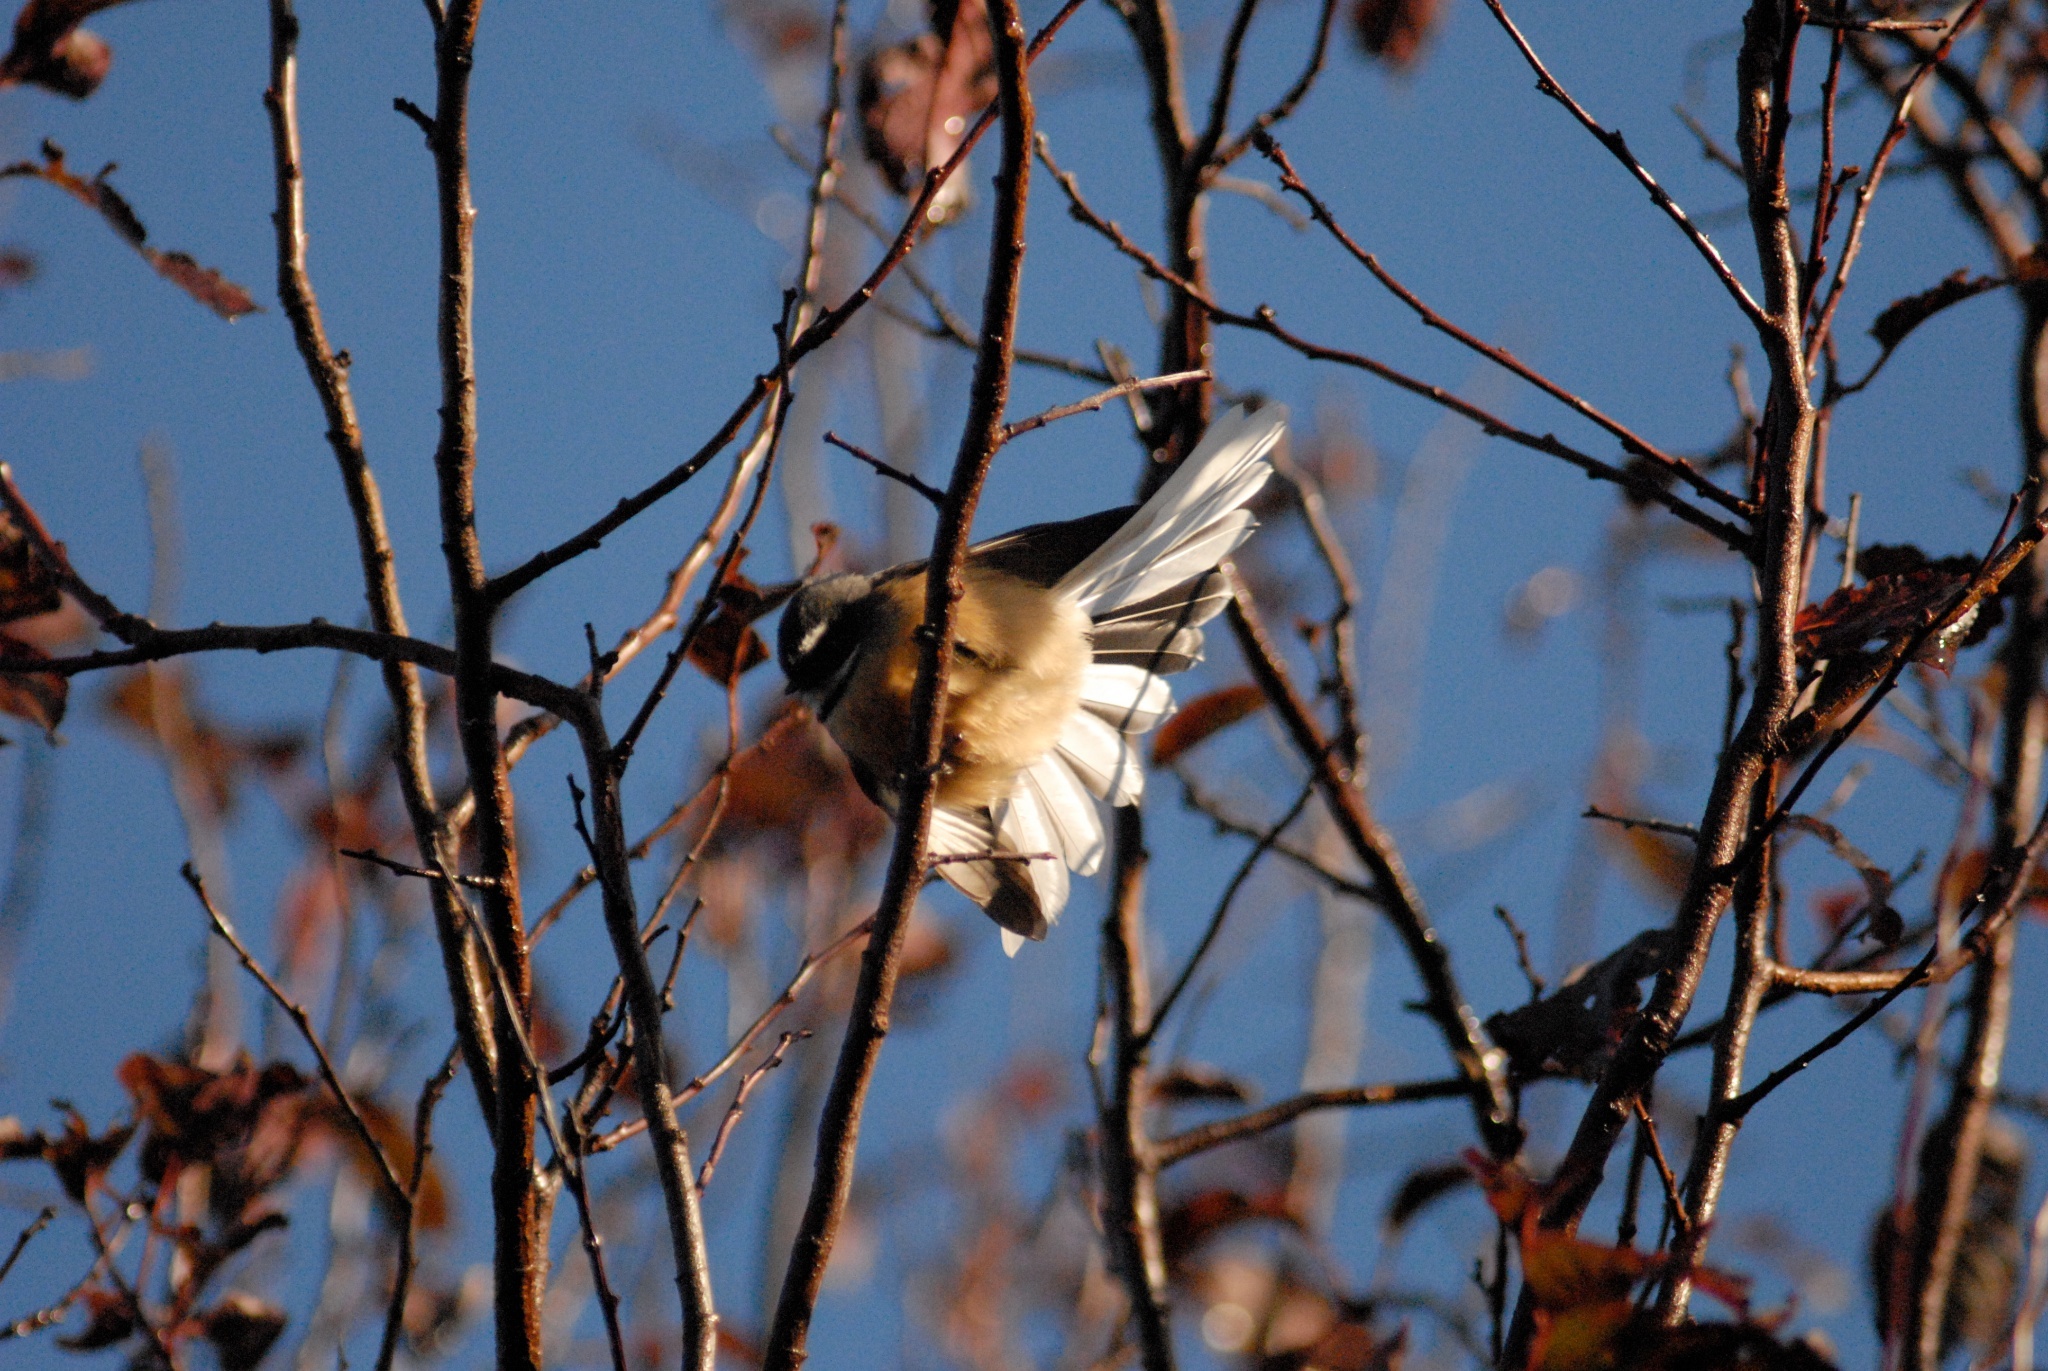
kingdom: Animalia
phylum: Chordata
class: Aves
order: Passeriformes
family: Rhipiduridae
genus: Rhipidura
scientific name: Rhipidura fuliginosa
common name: New zealand fantail
